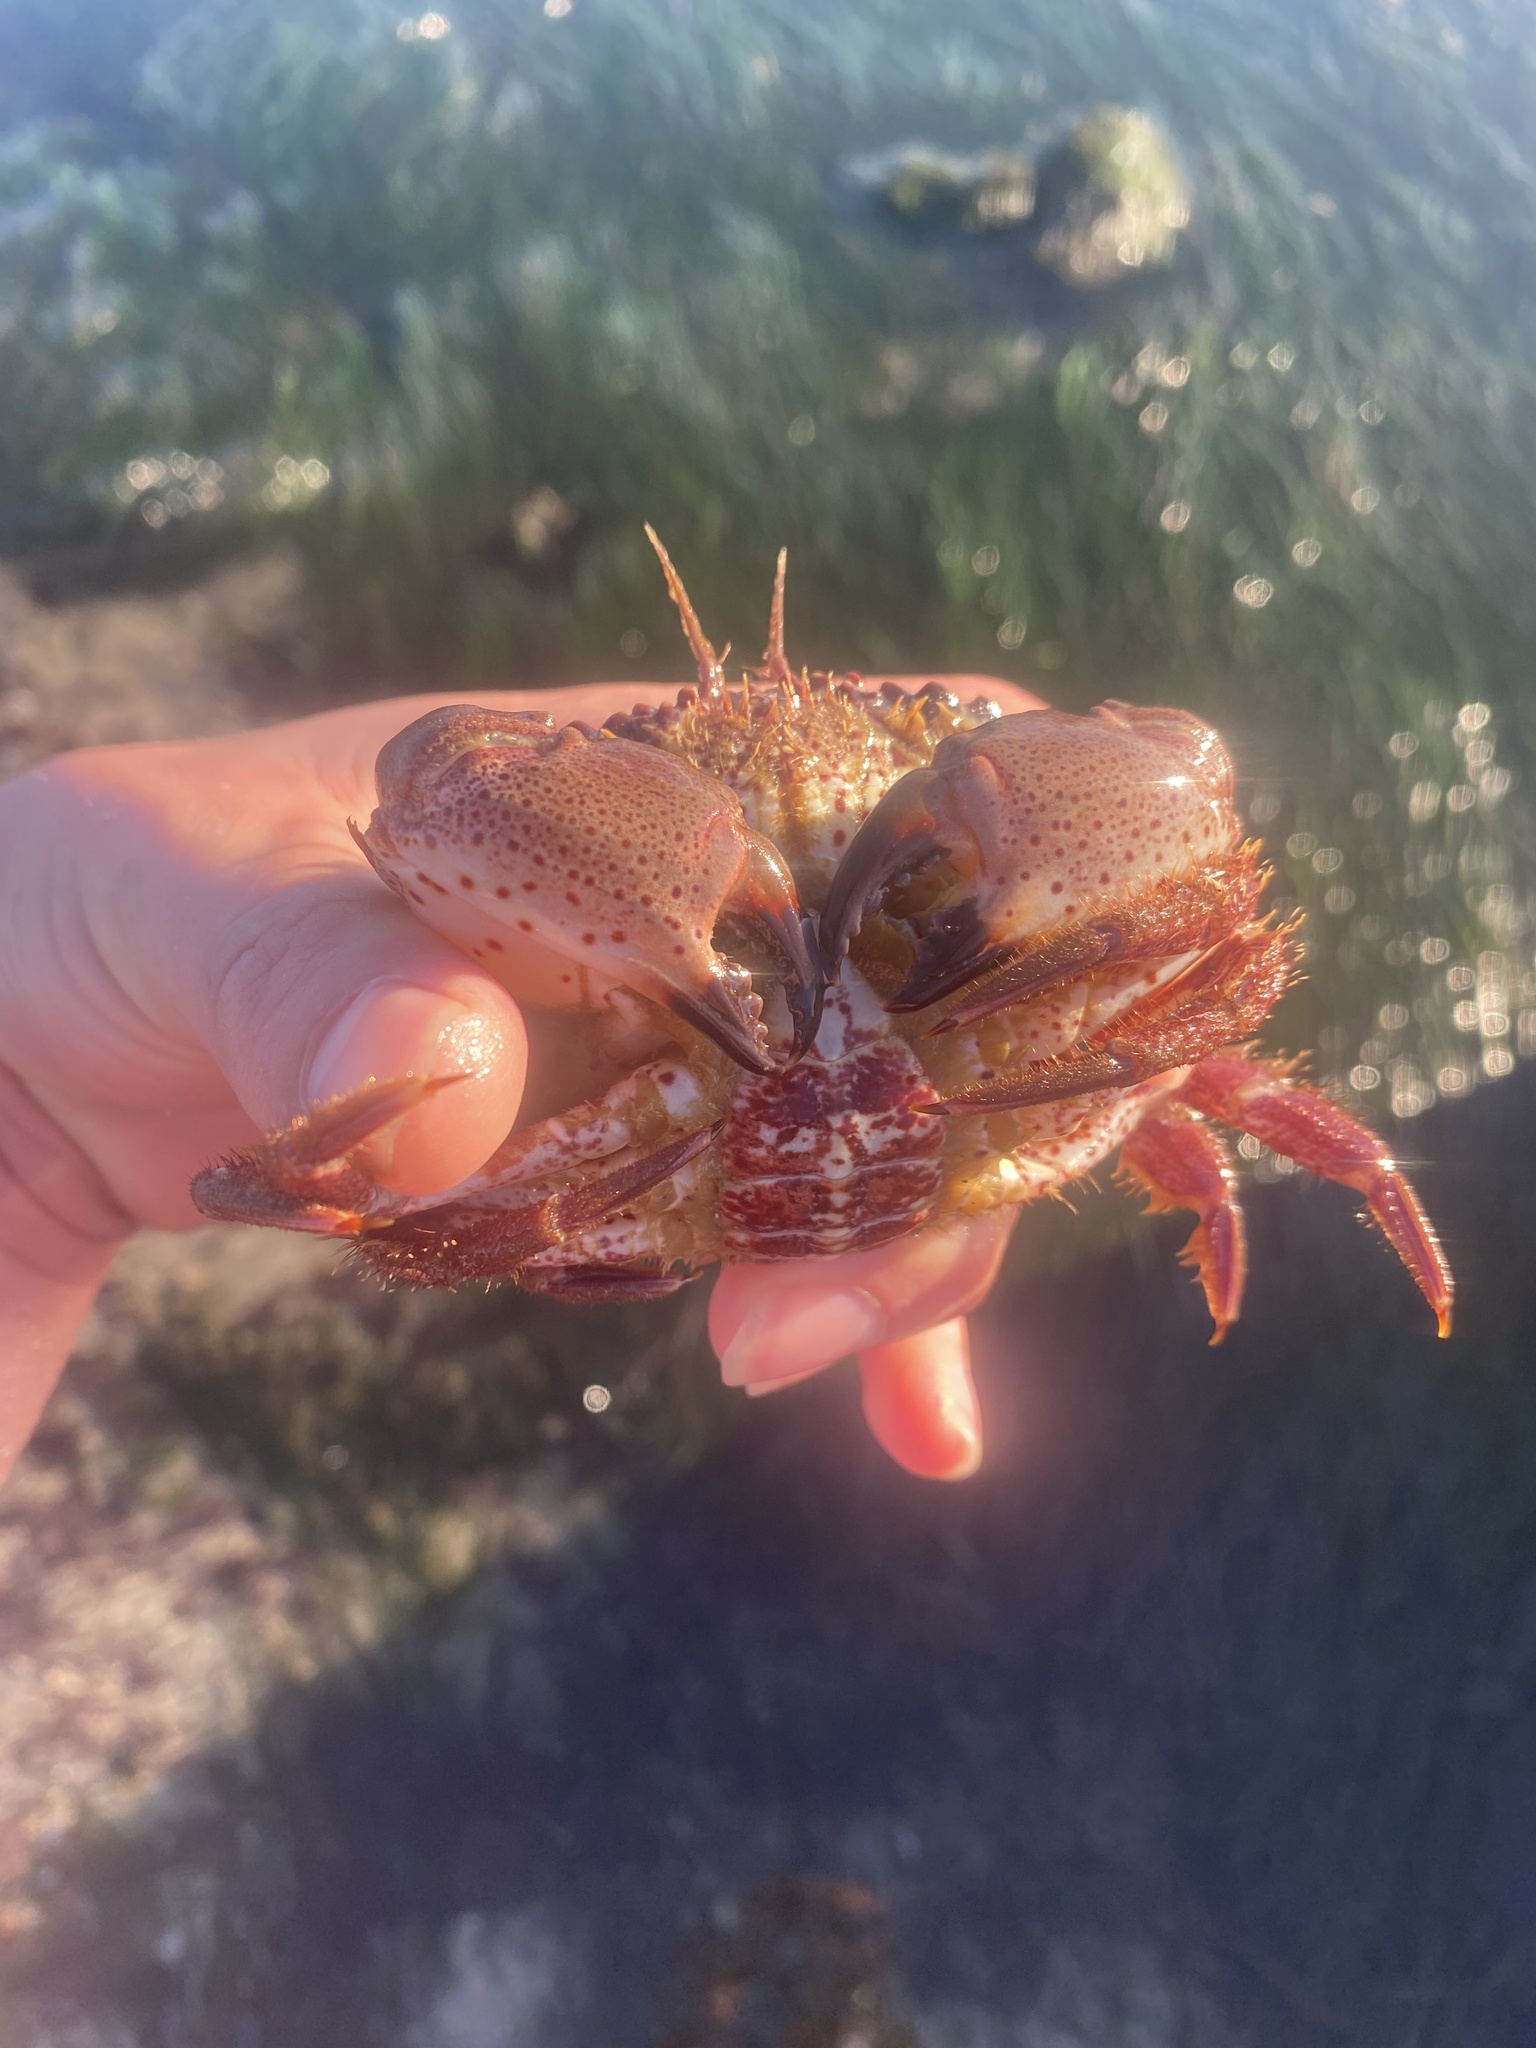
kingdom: Animalia
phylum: Arthropoda
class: Malacostraca
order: Decapoda
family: Cancridae
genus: Romaleon
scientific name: Romaleon antennarium
